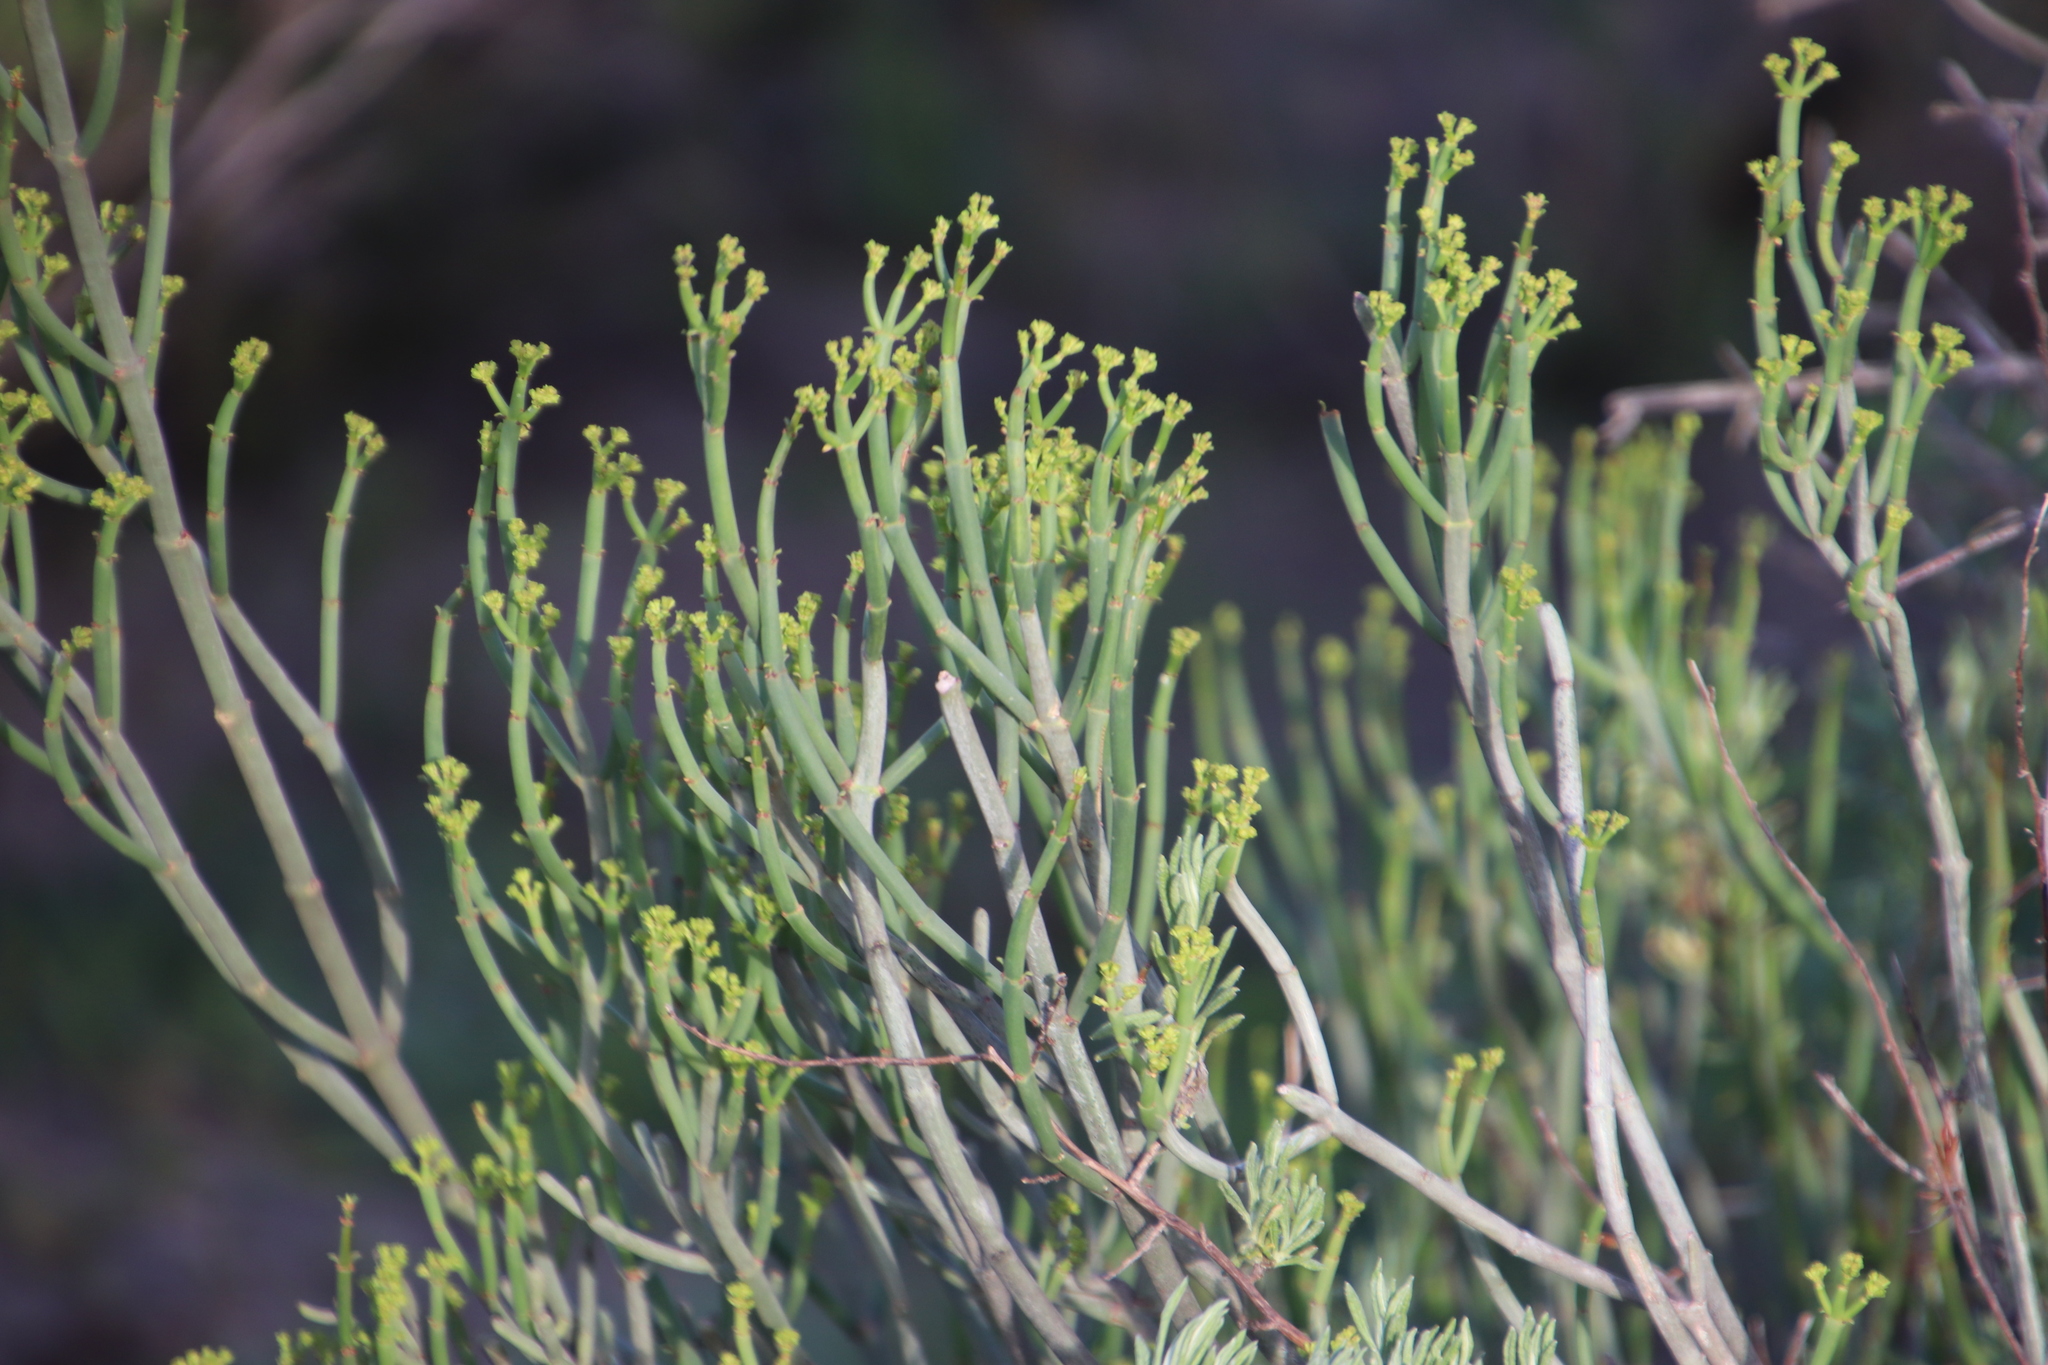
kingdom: Plantae
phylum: Tracheophyta
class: Magnoliopsida
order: Malpighiales
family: Euphorbiaceae
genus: Euphorbia
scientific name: Euphorbia tenax
